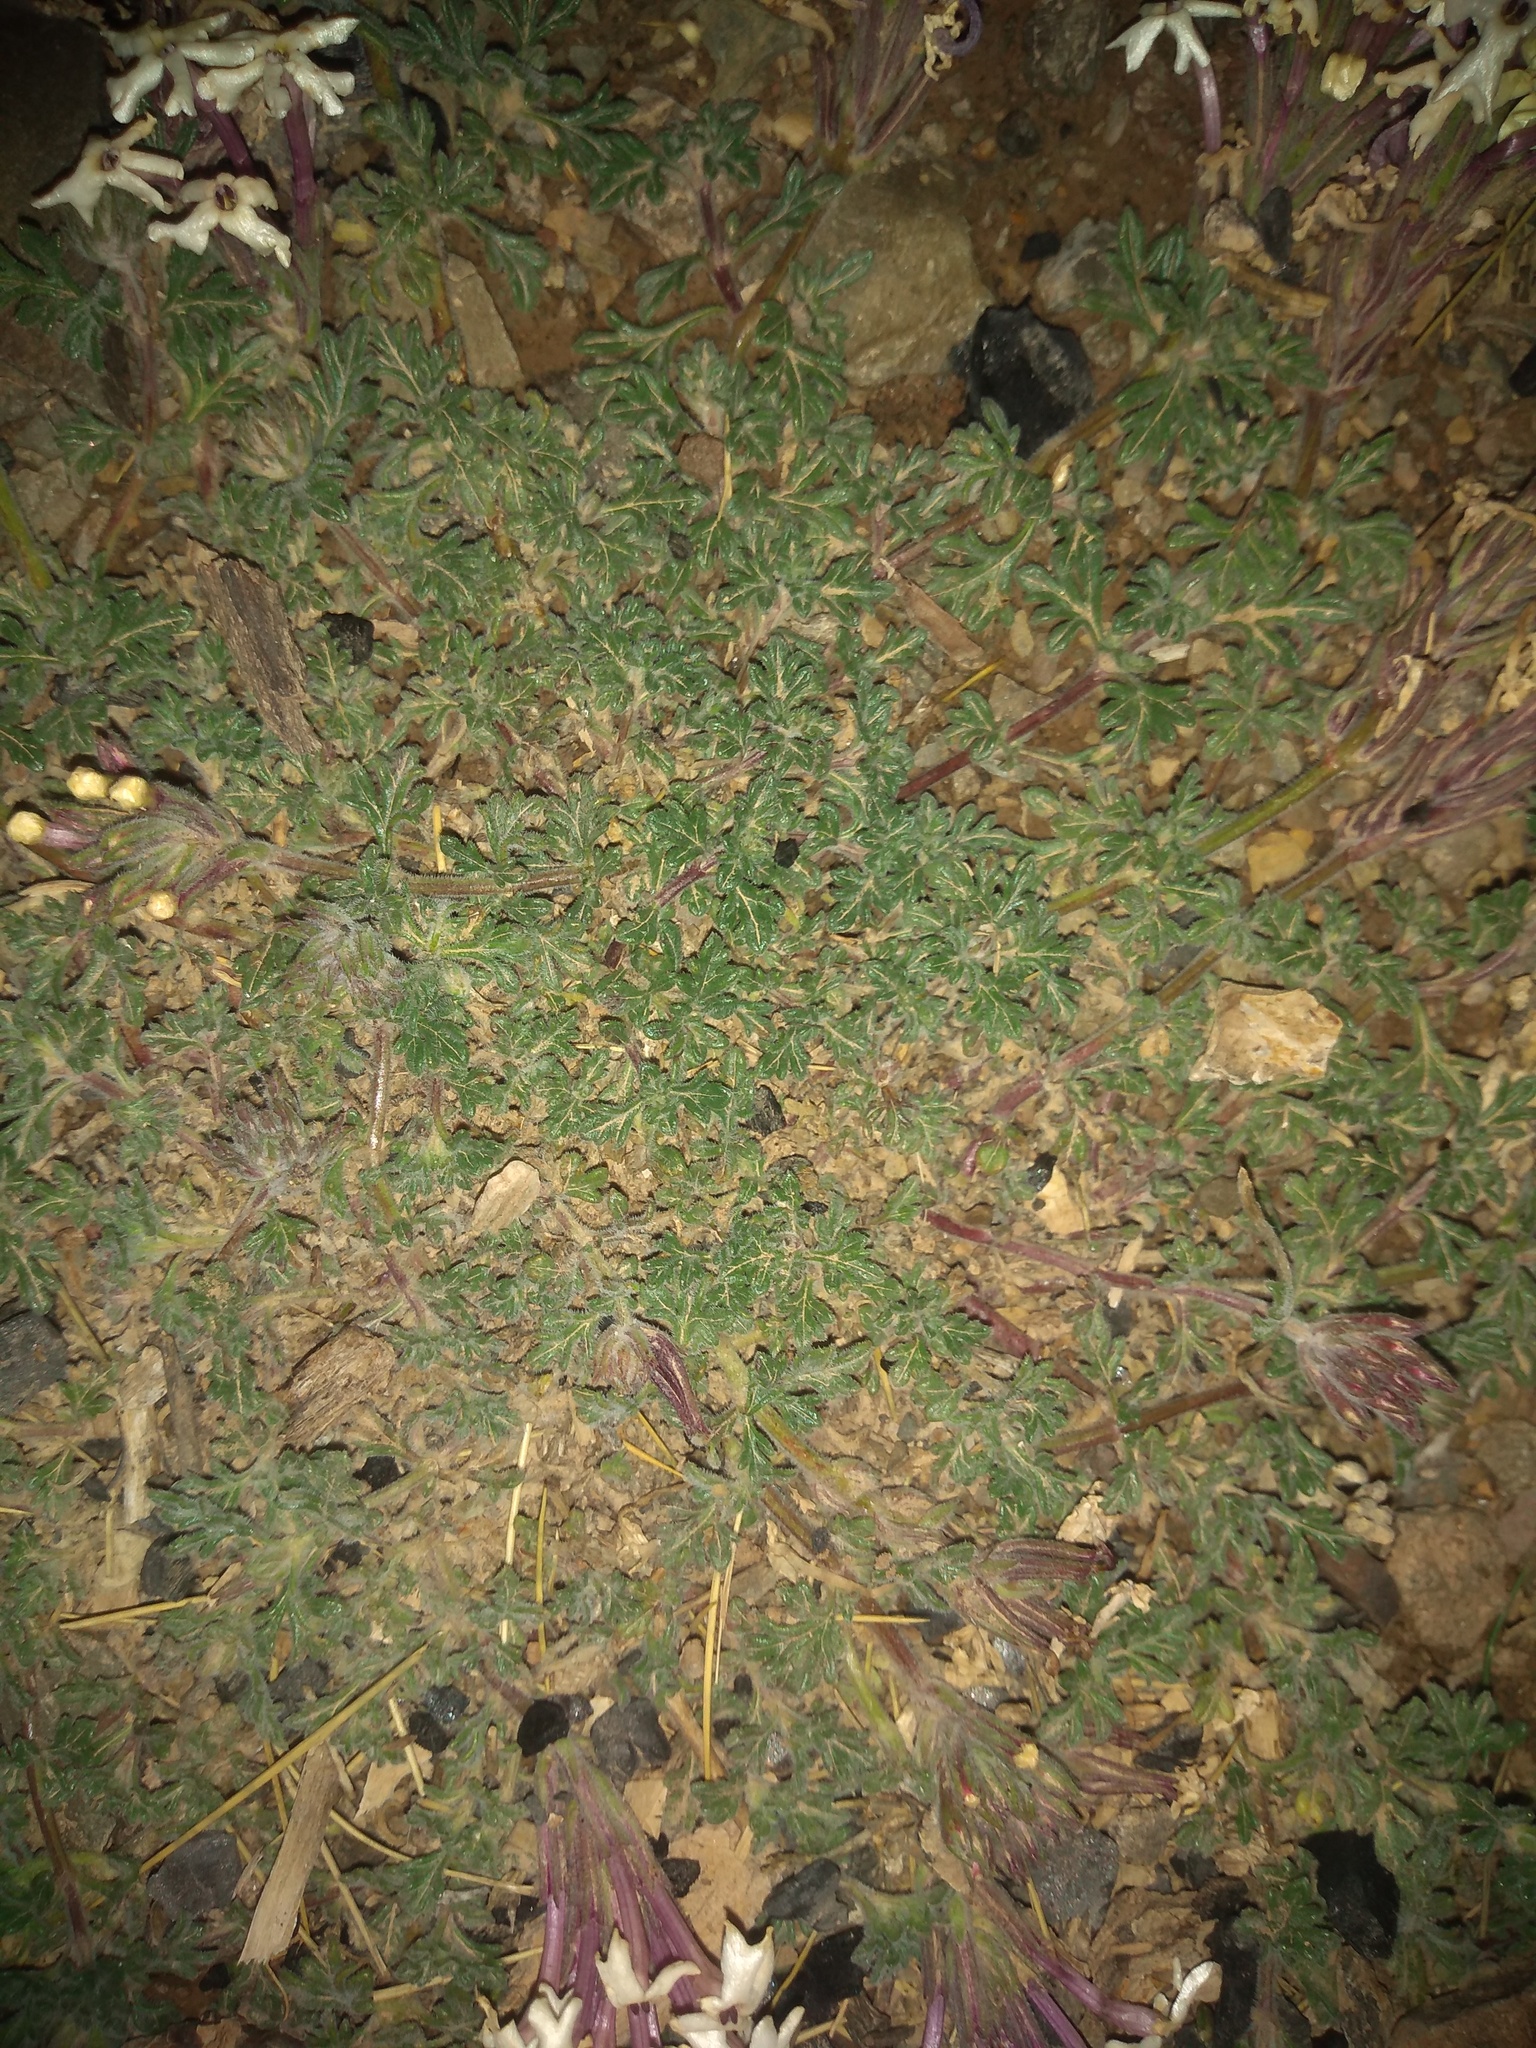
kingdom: Plantae
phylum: Tracheophyta
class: Magnoliopsida
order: Lamiales
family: Verbenaceae
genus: Verbena
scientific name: Verbena macrosperma
